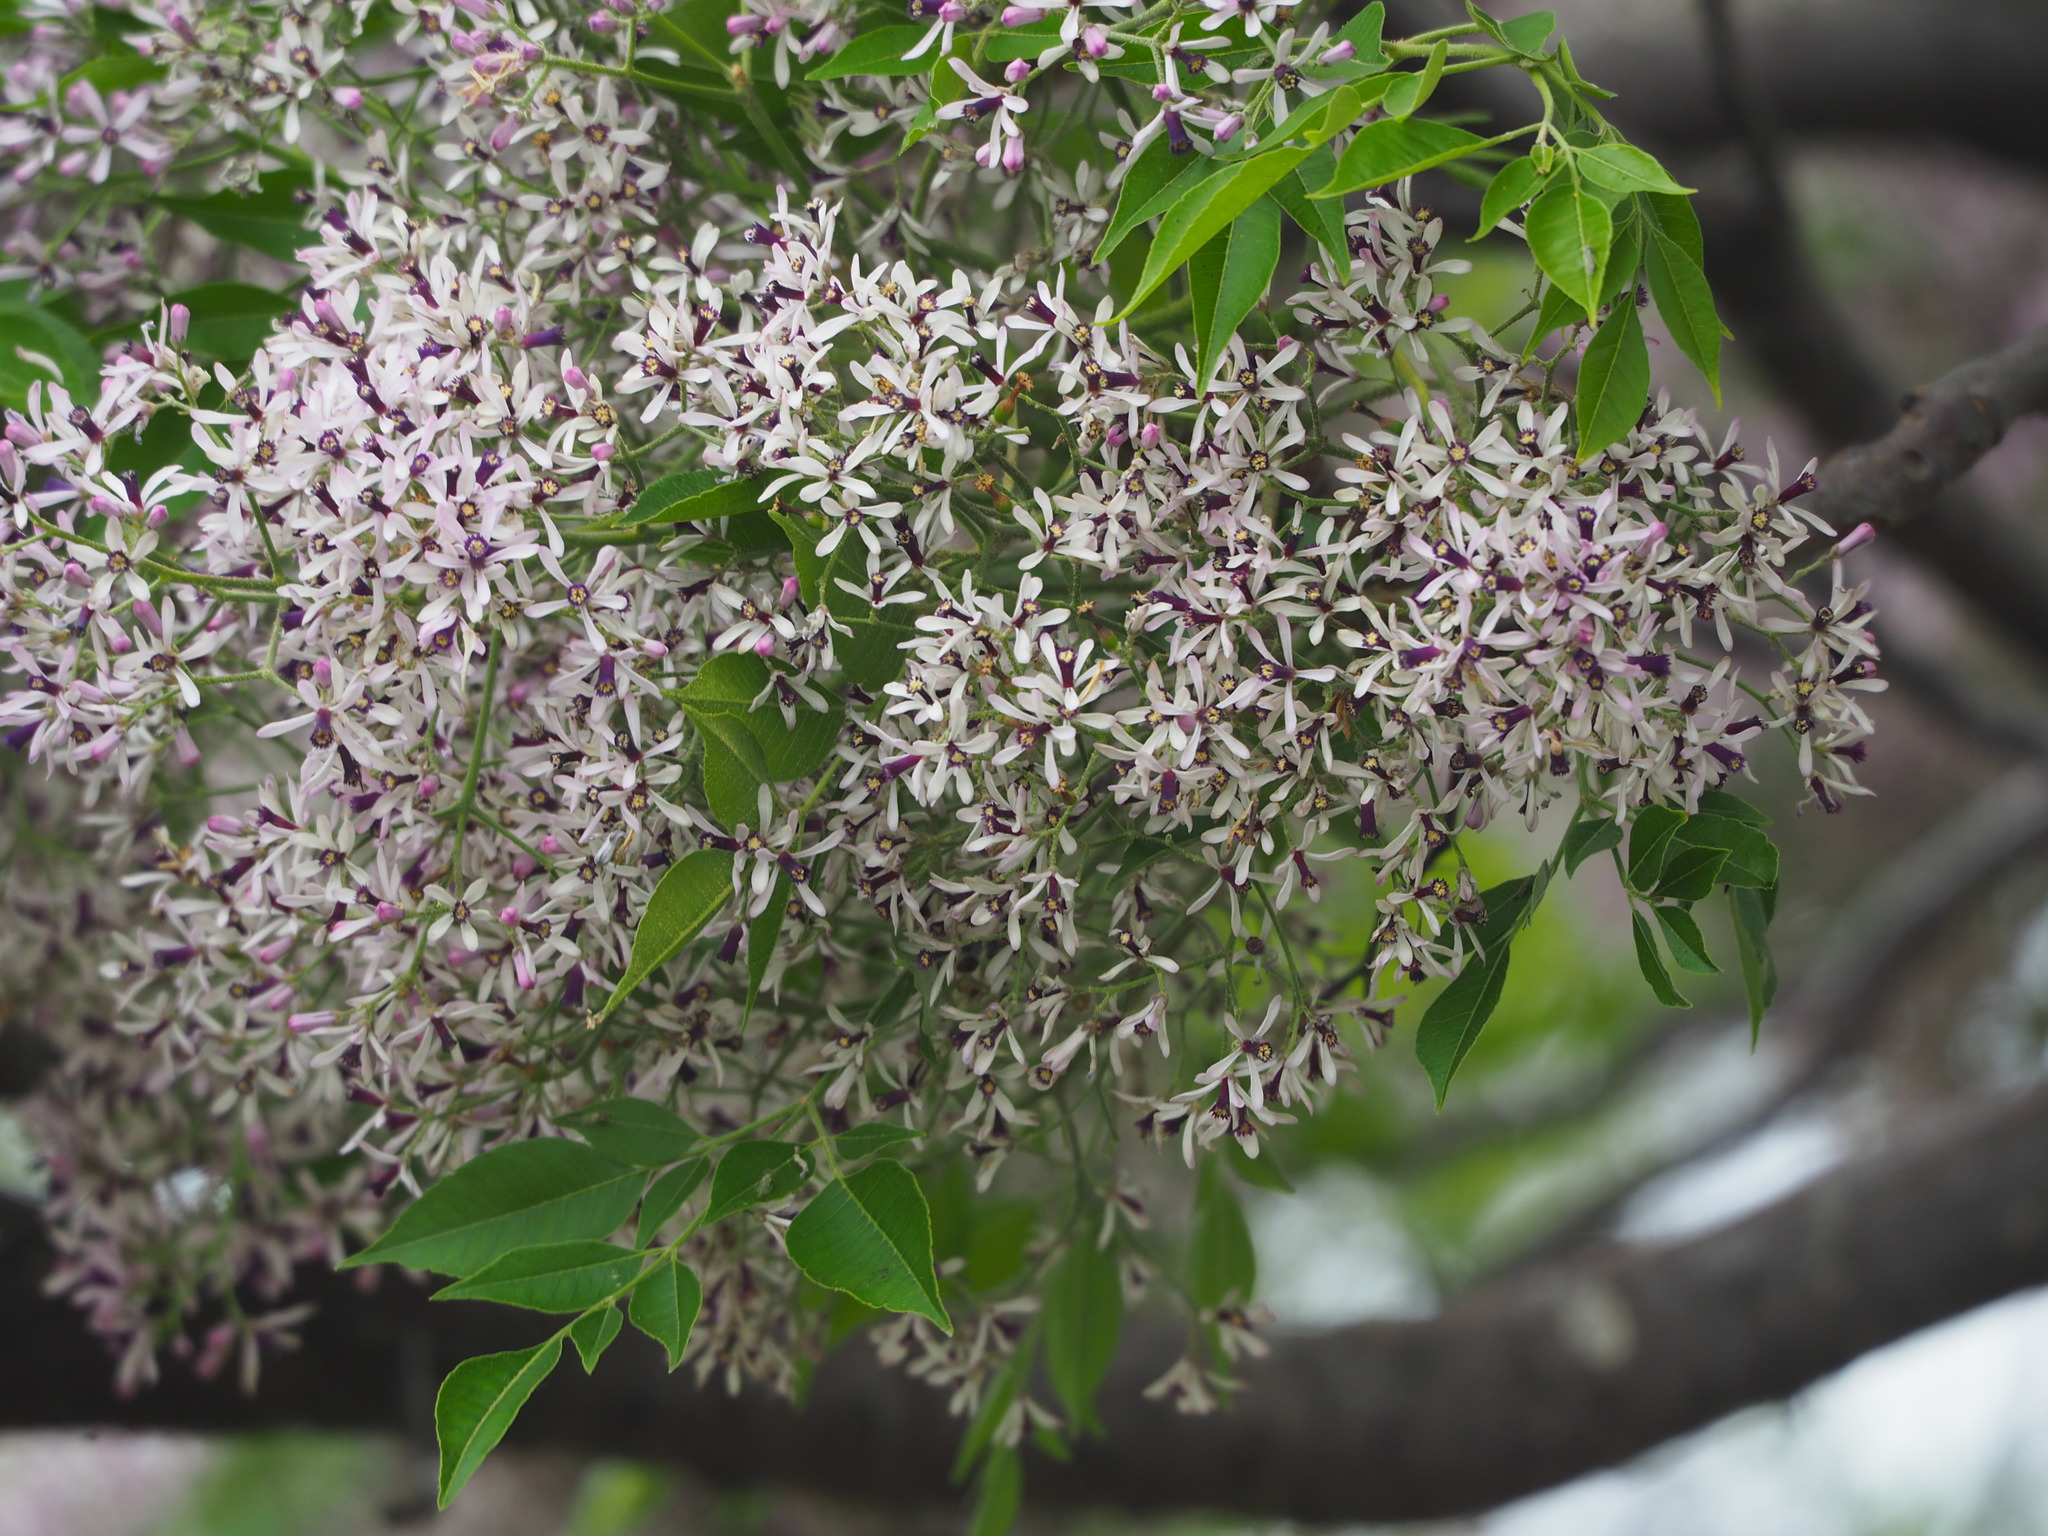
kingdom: Plantae
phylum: Tracheophyta
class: Magnoliopsida
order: Sapindales
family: Meliaceae
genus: Melia
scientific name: Melia azedarach
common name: Chinaberrytree
